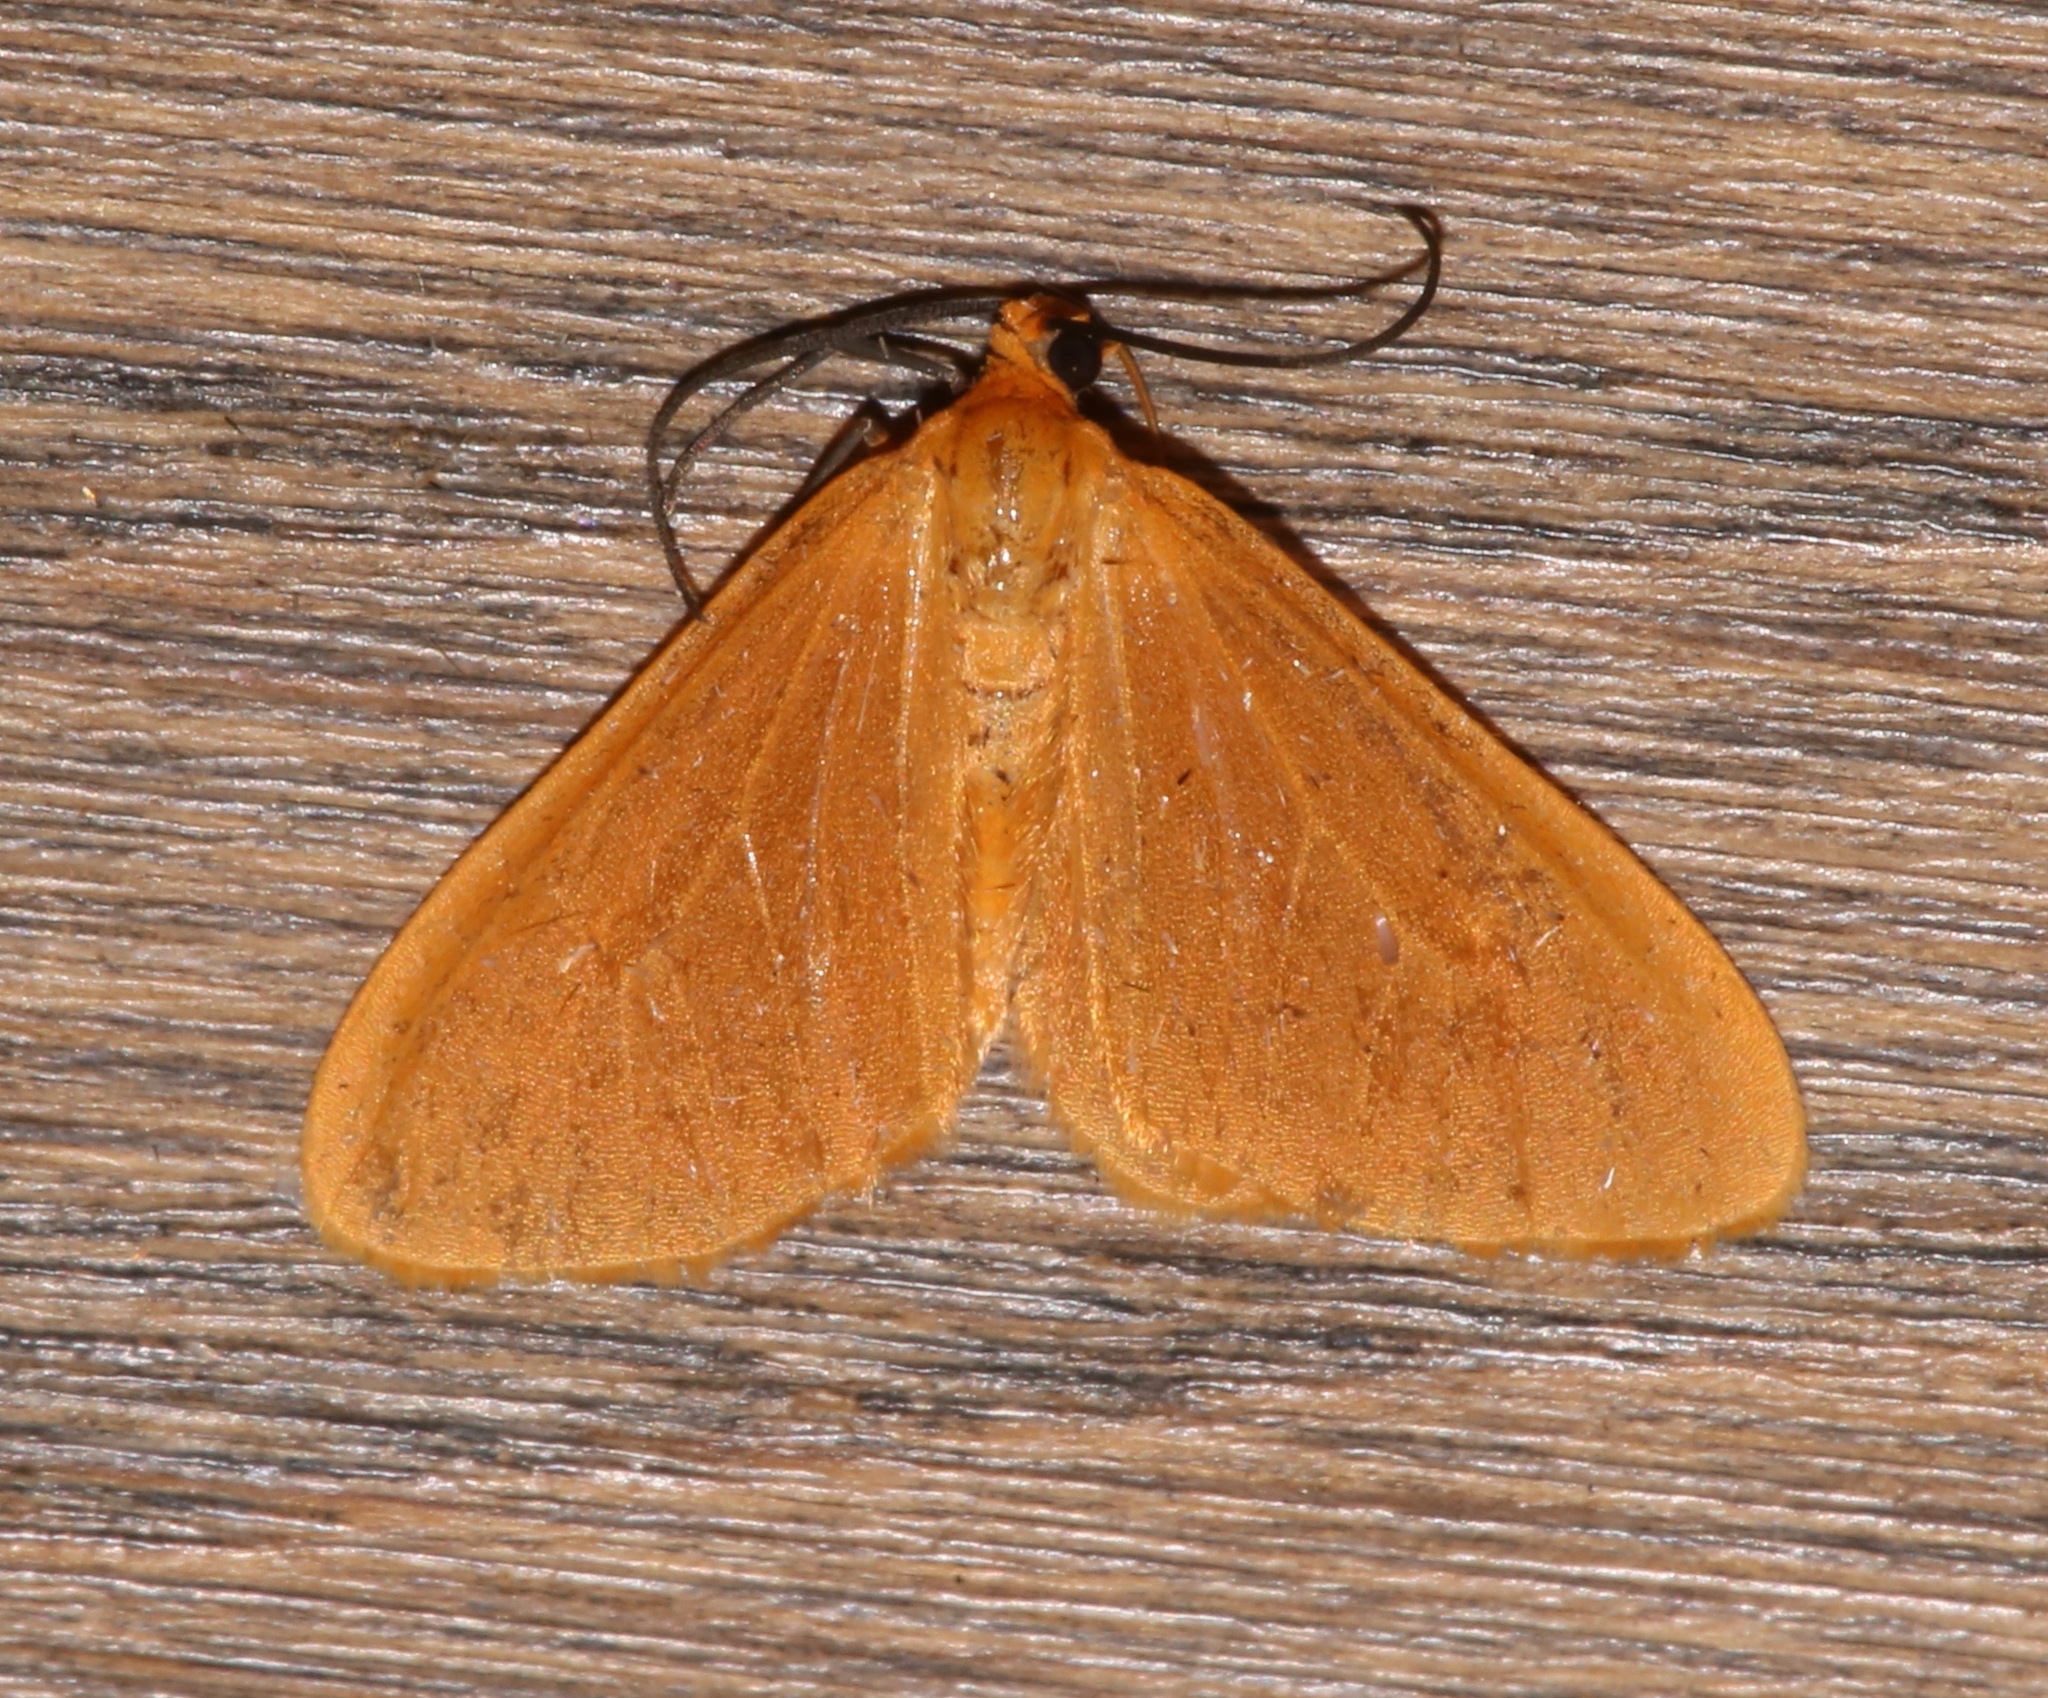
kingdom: Animalia
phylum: Arthropoda
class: Insecta
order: Lepidoptera
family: Geometridae
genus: Eubaphe
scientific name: Eubaphe unicolor
